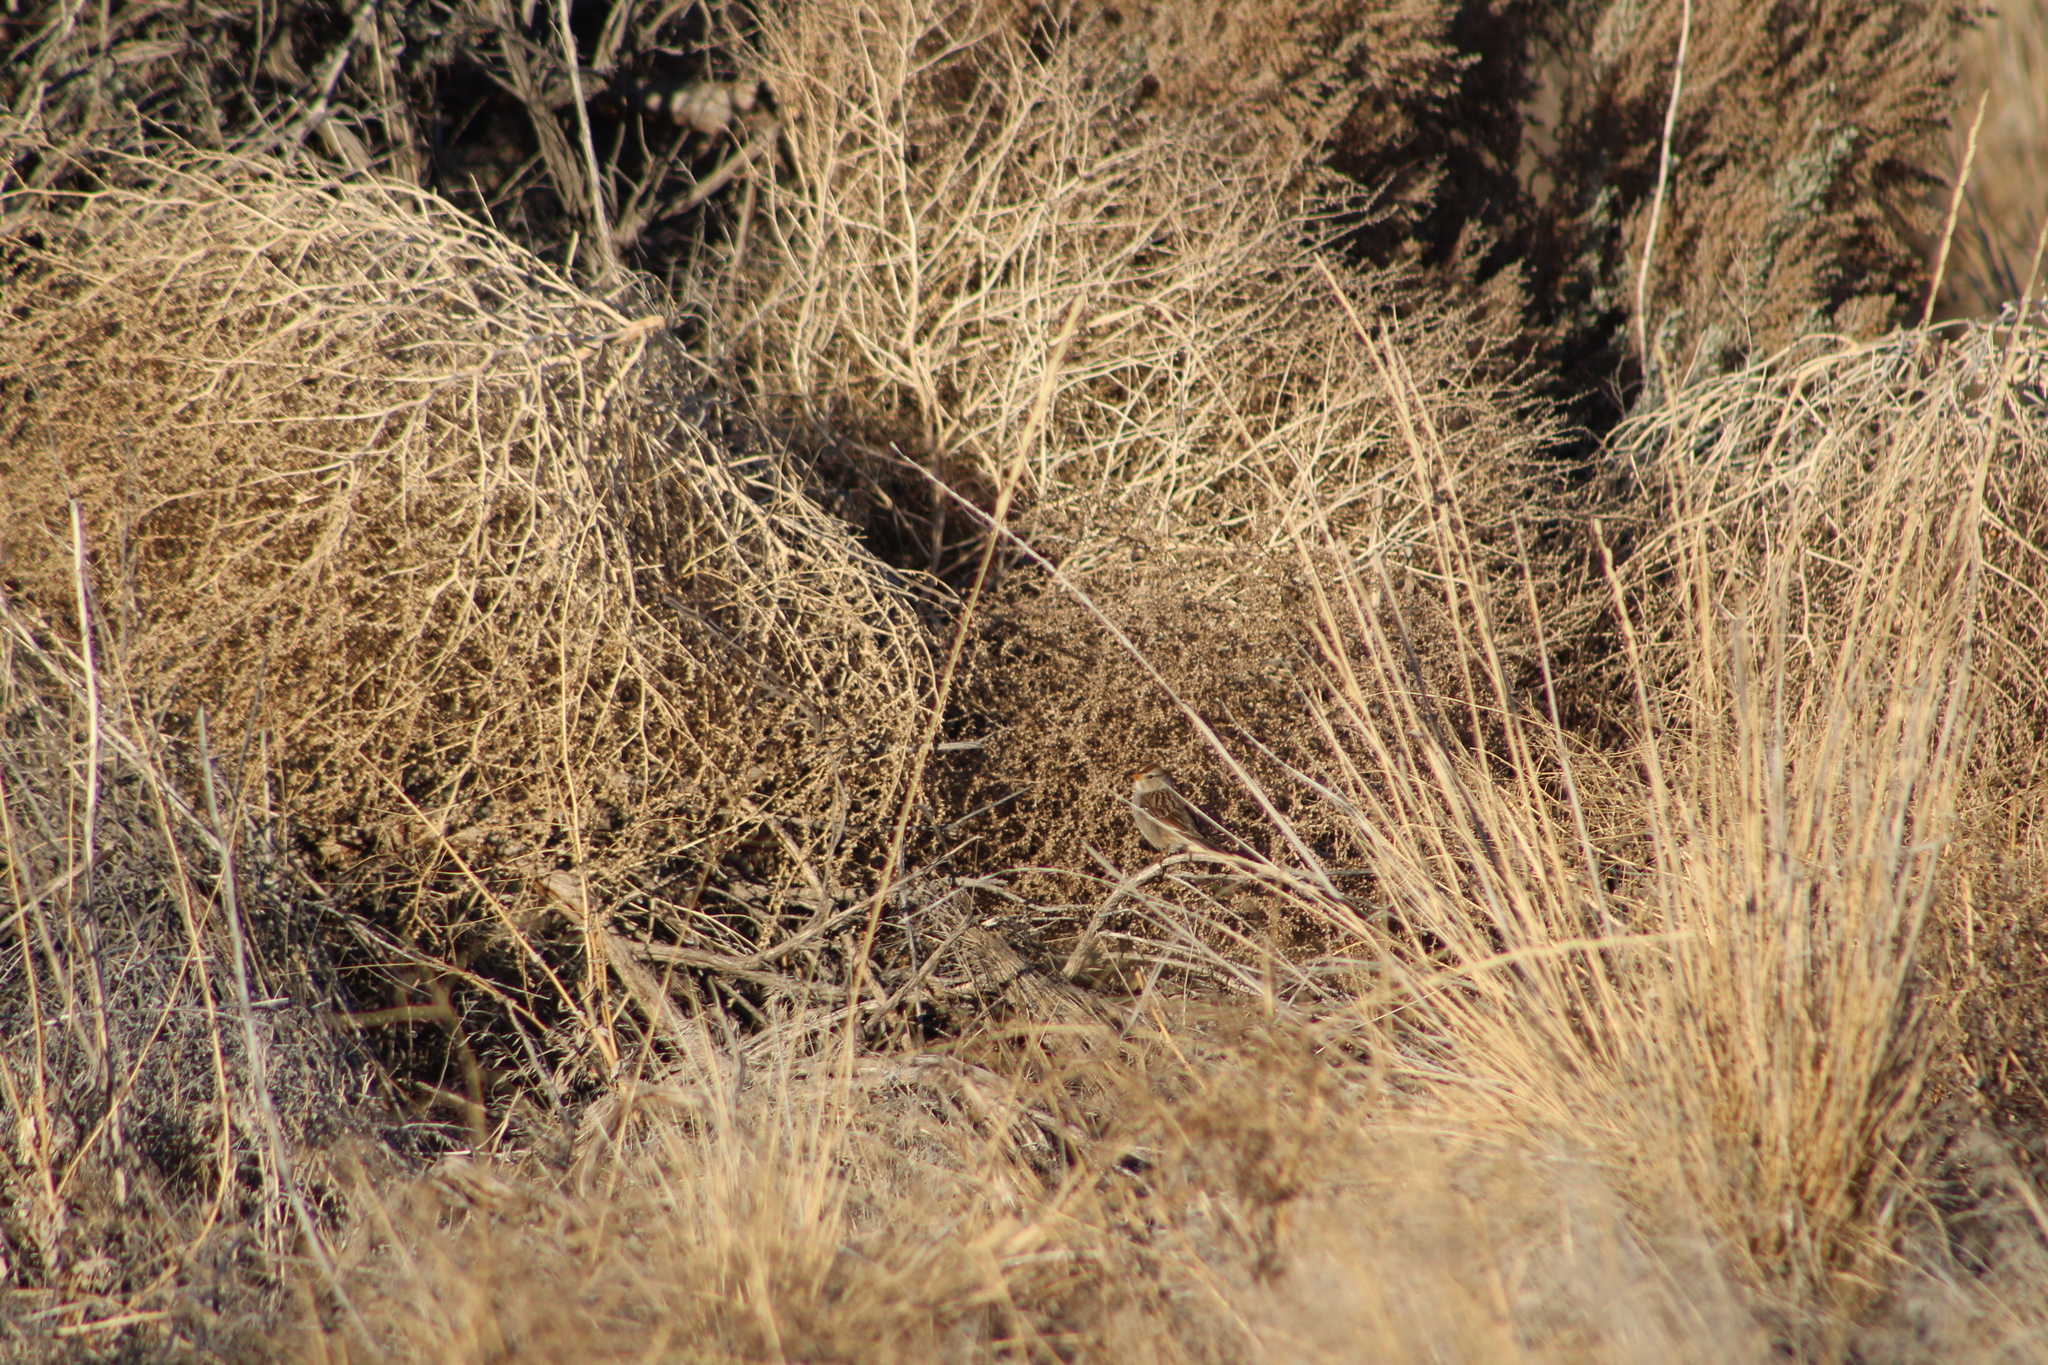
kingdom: Animalia
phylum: Chordata
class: Aves
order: Passeriformes
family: Passerellidae
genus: Zonotrichia
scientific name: Zonotrichia leucophrys
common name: White-crowned sparrow
